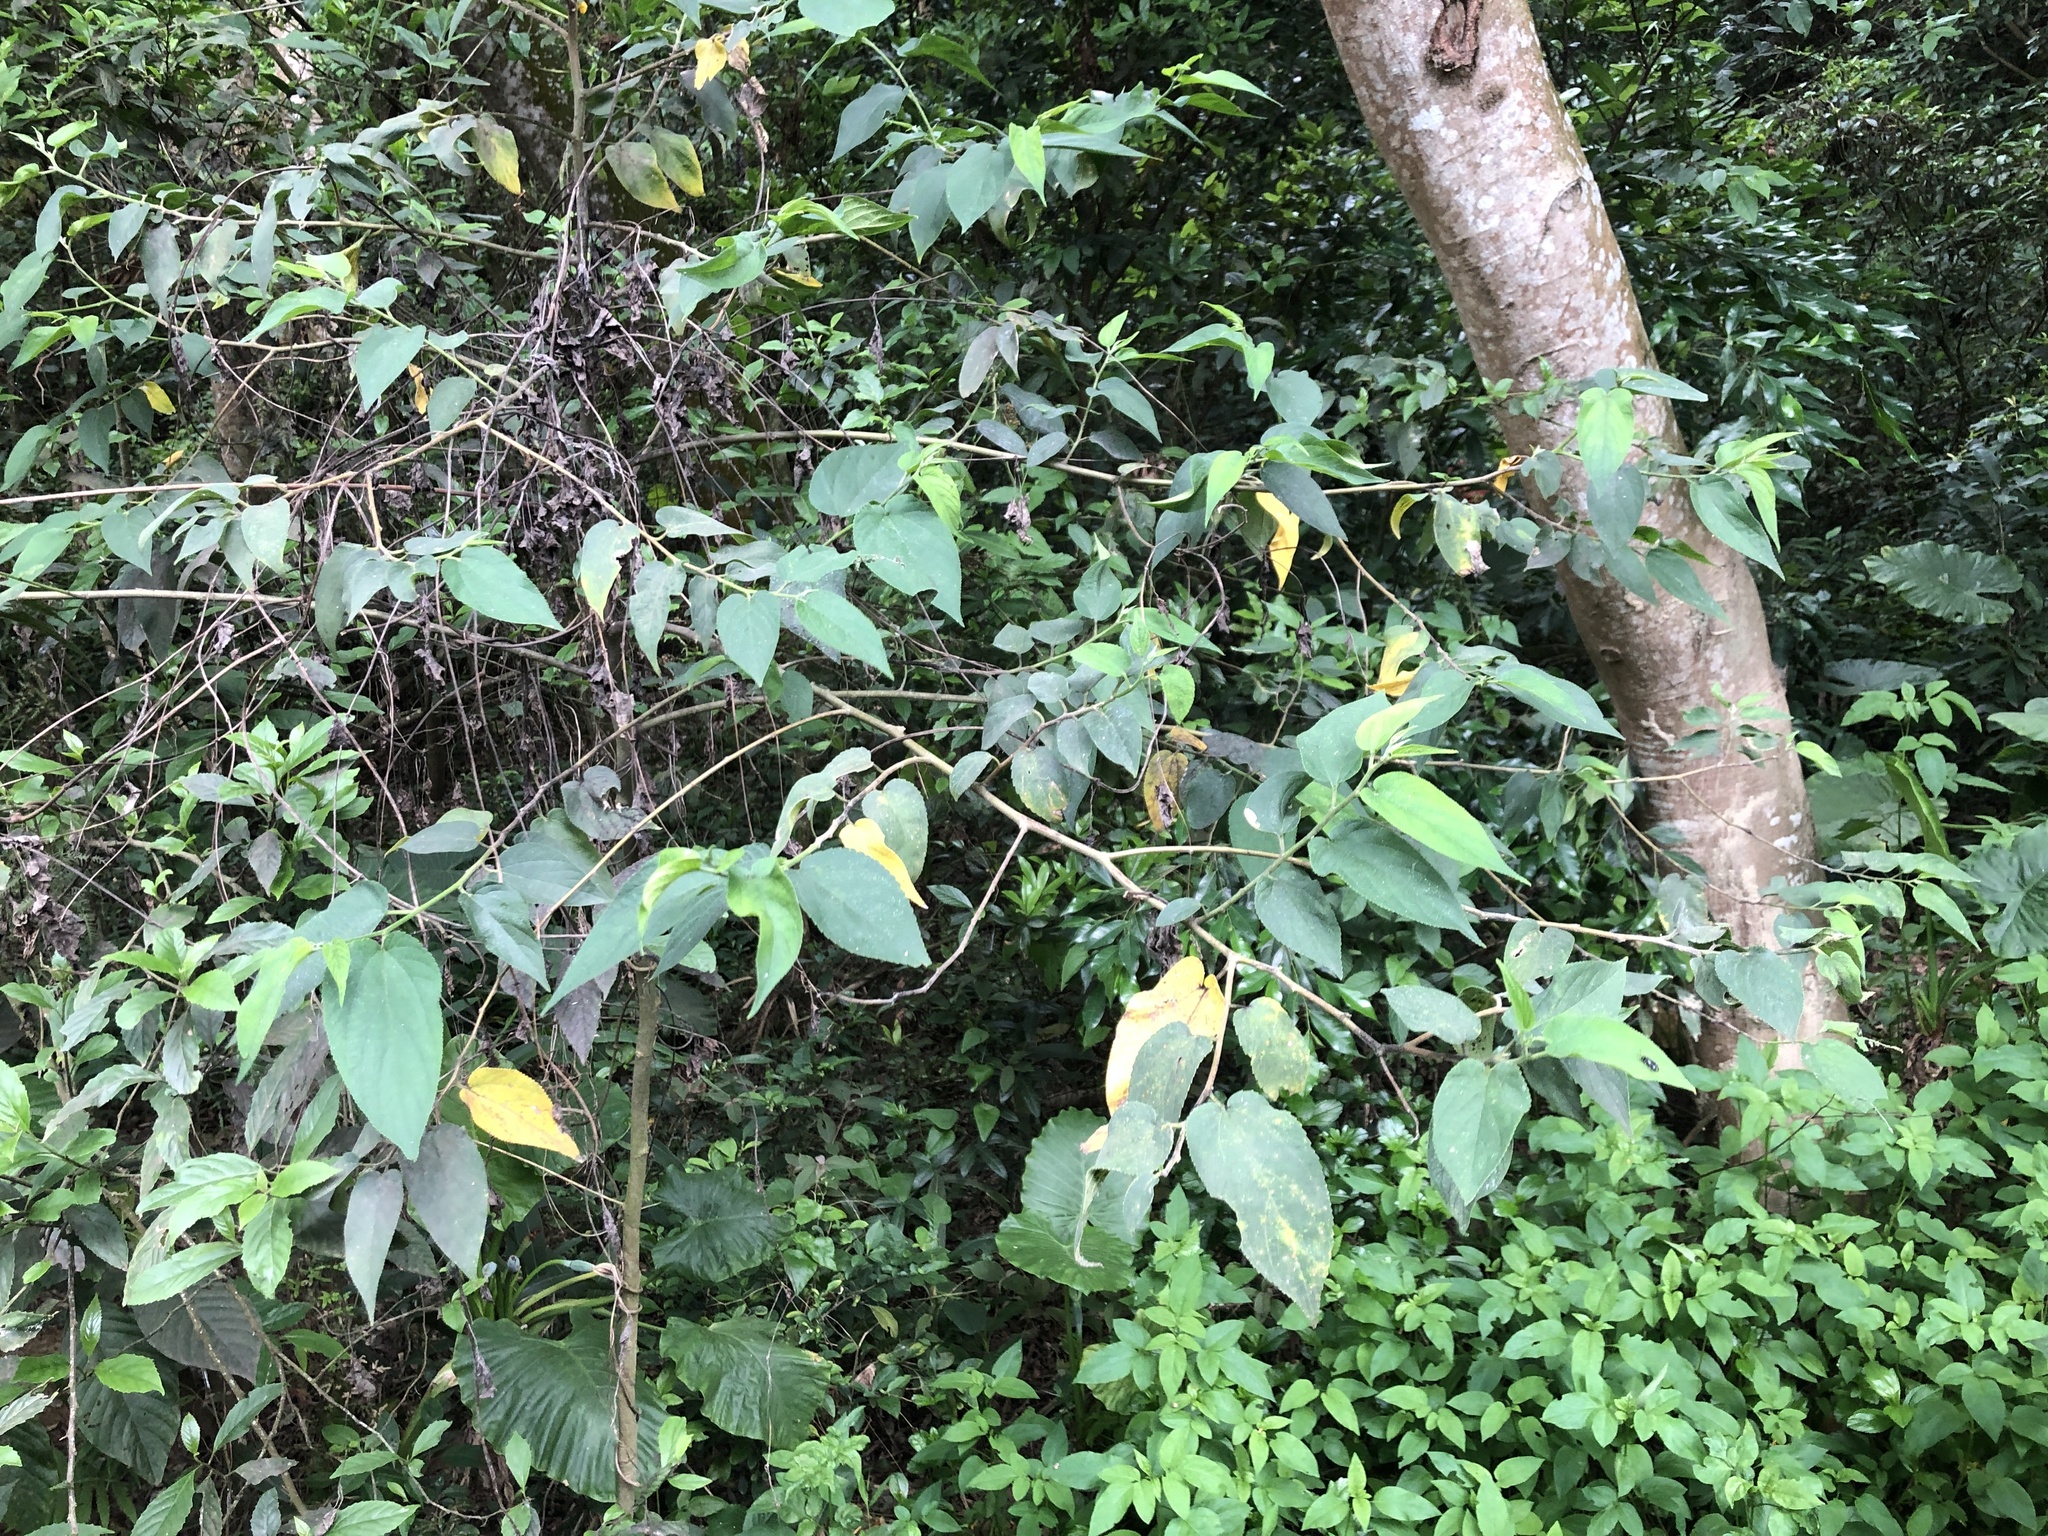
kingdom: Plantae
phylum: Tracheophyta
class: Magnoliopsida
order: Rosales
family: Cannabaceae
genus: Trema
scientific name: Trema orientale
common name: Indian charcoal tree
